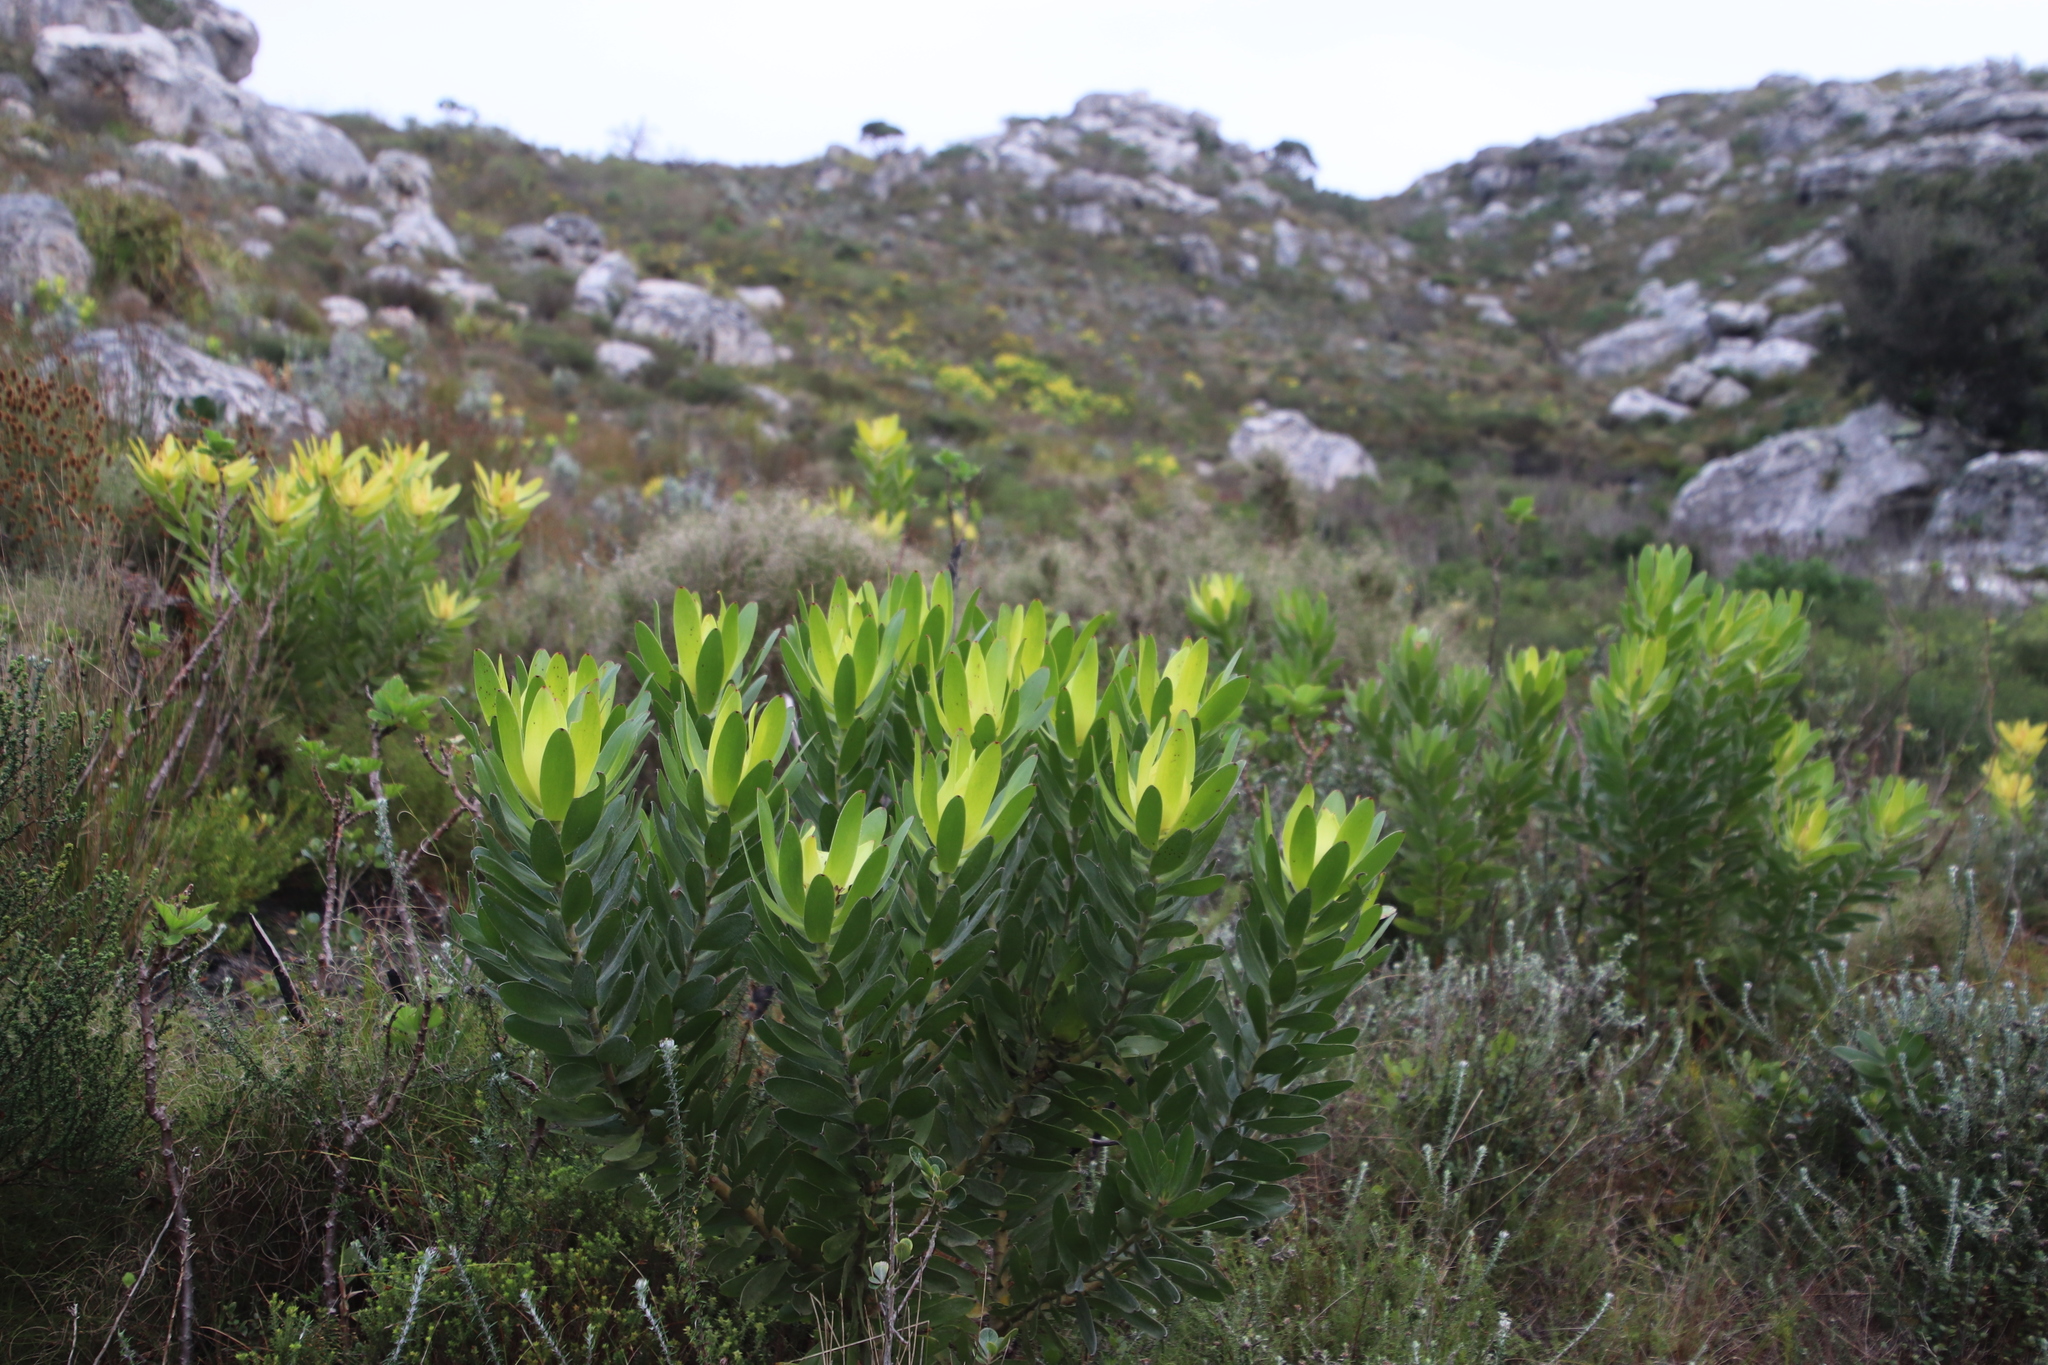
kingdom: Plantae
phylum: Tracheophyta
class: Magnoliopsida
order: Proteales
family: Proteaceae
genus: Leucadendron
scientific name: Leucadendron laureolum
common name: Golden sunshinebush
